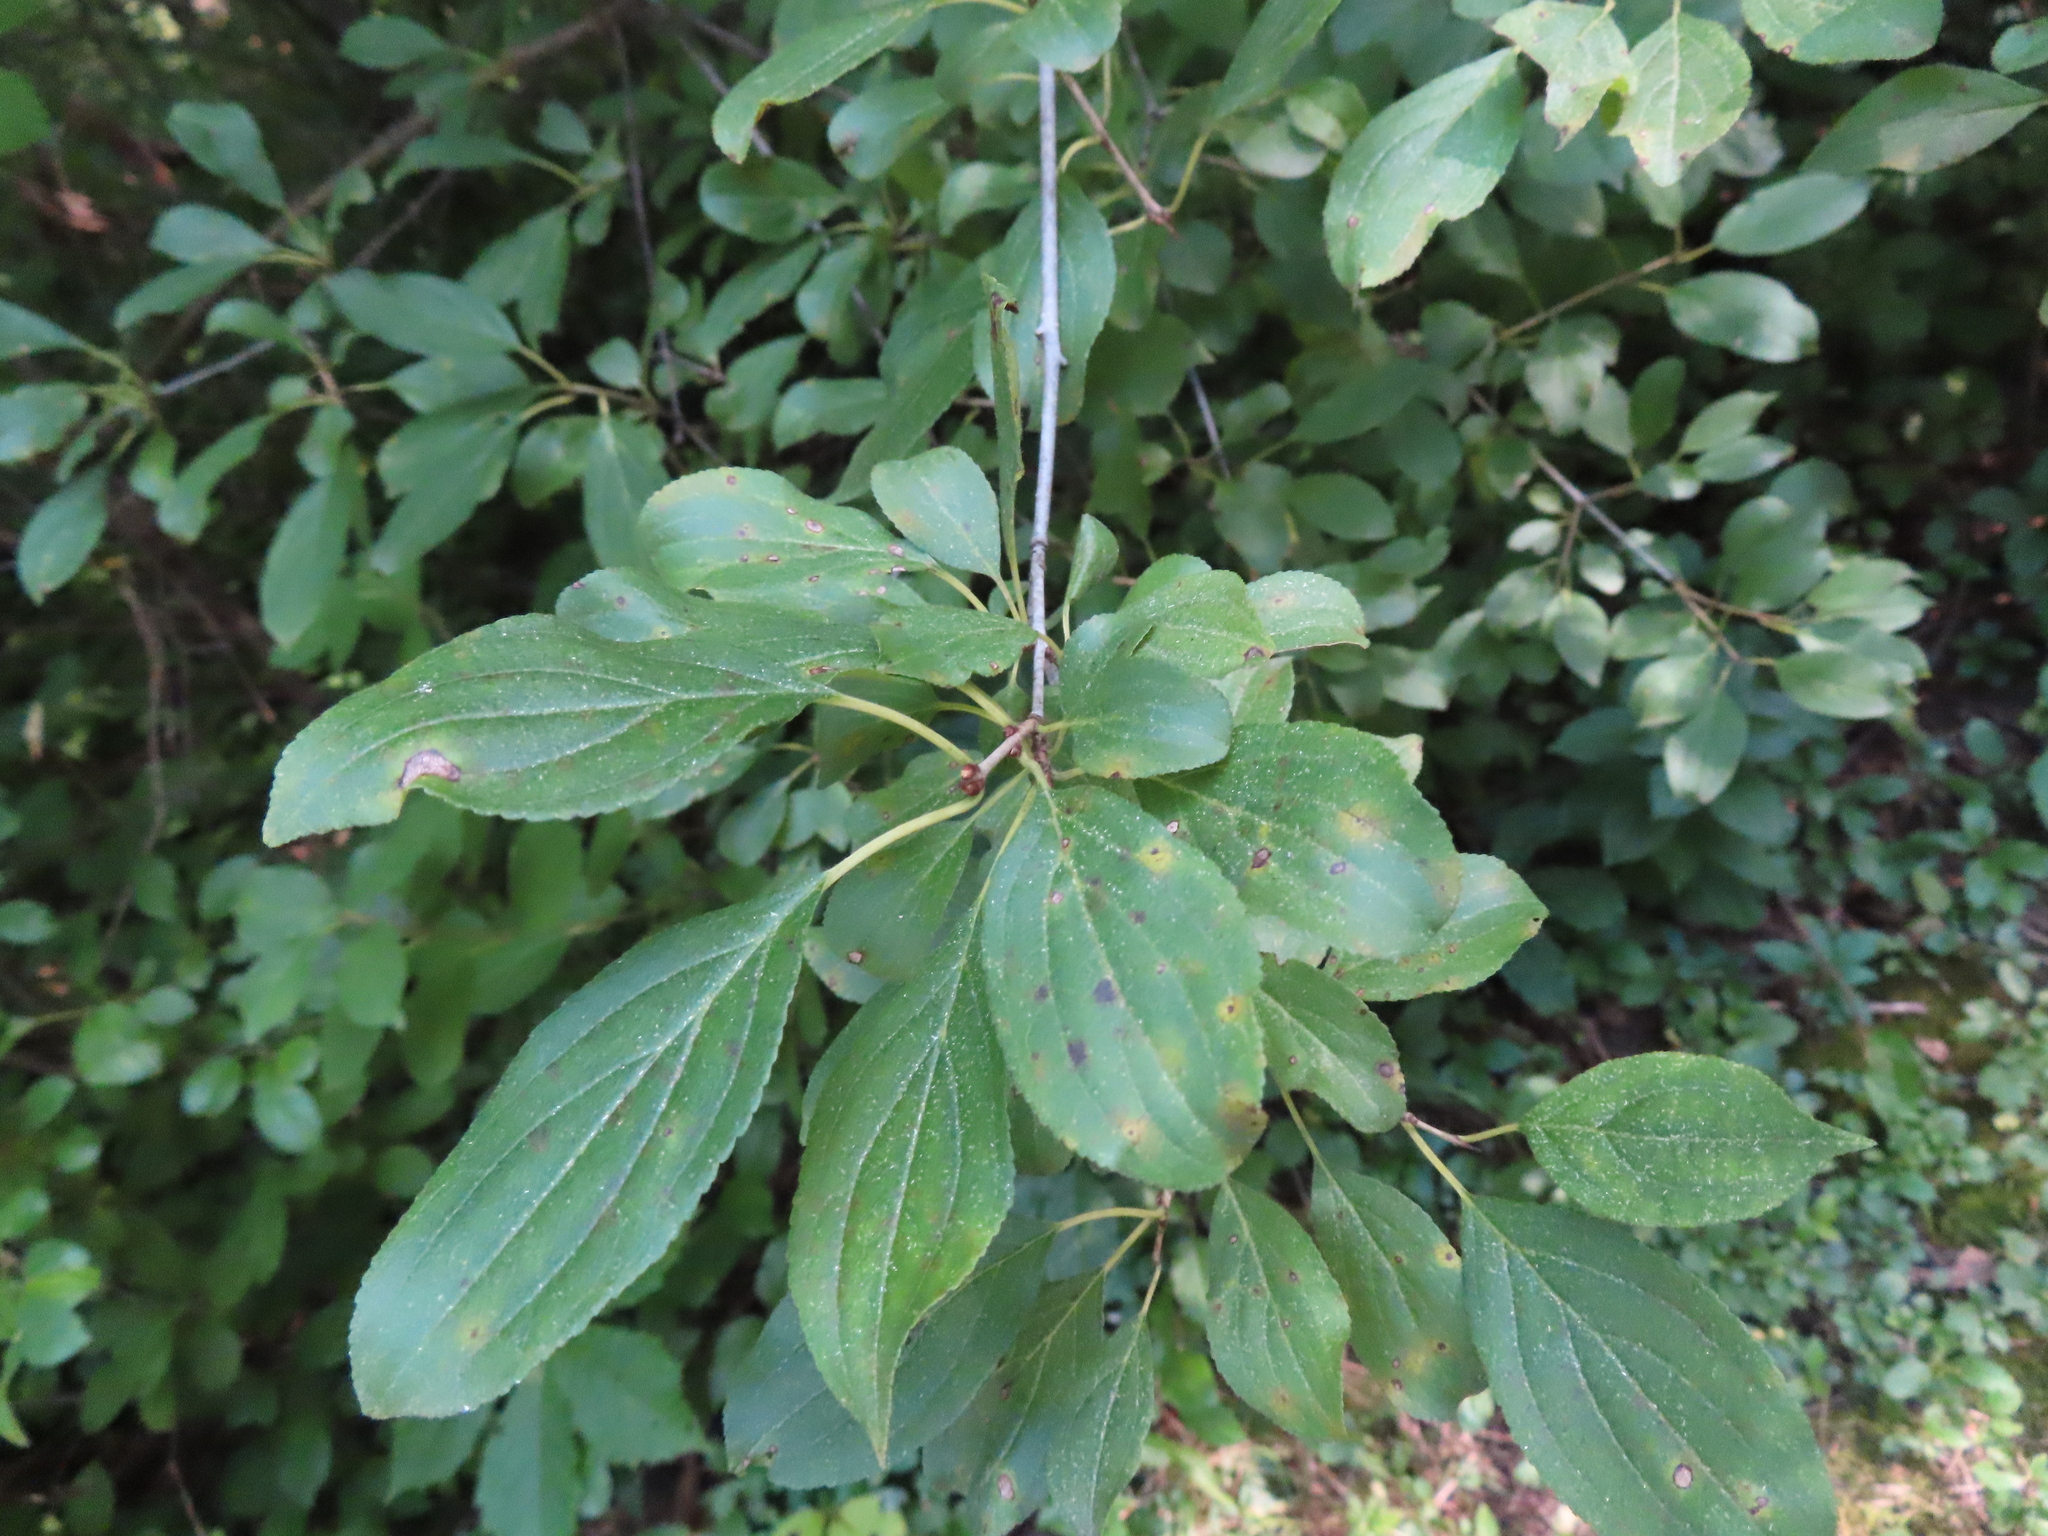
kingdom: Plantae
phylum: Tracheophyta
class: Magnoliopsida
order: Rosales
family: Rhamnaceae
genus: Rhamnus
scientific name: Rhamnus cathartica
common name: Common buckthorn
